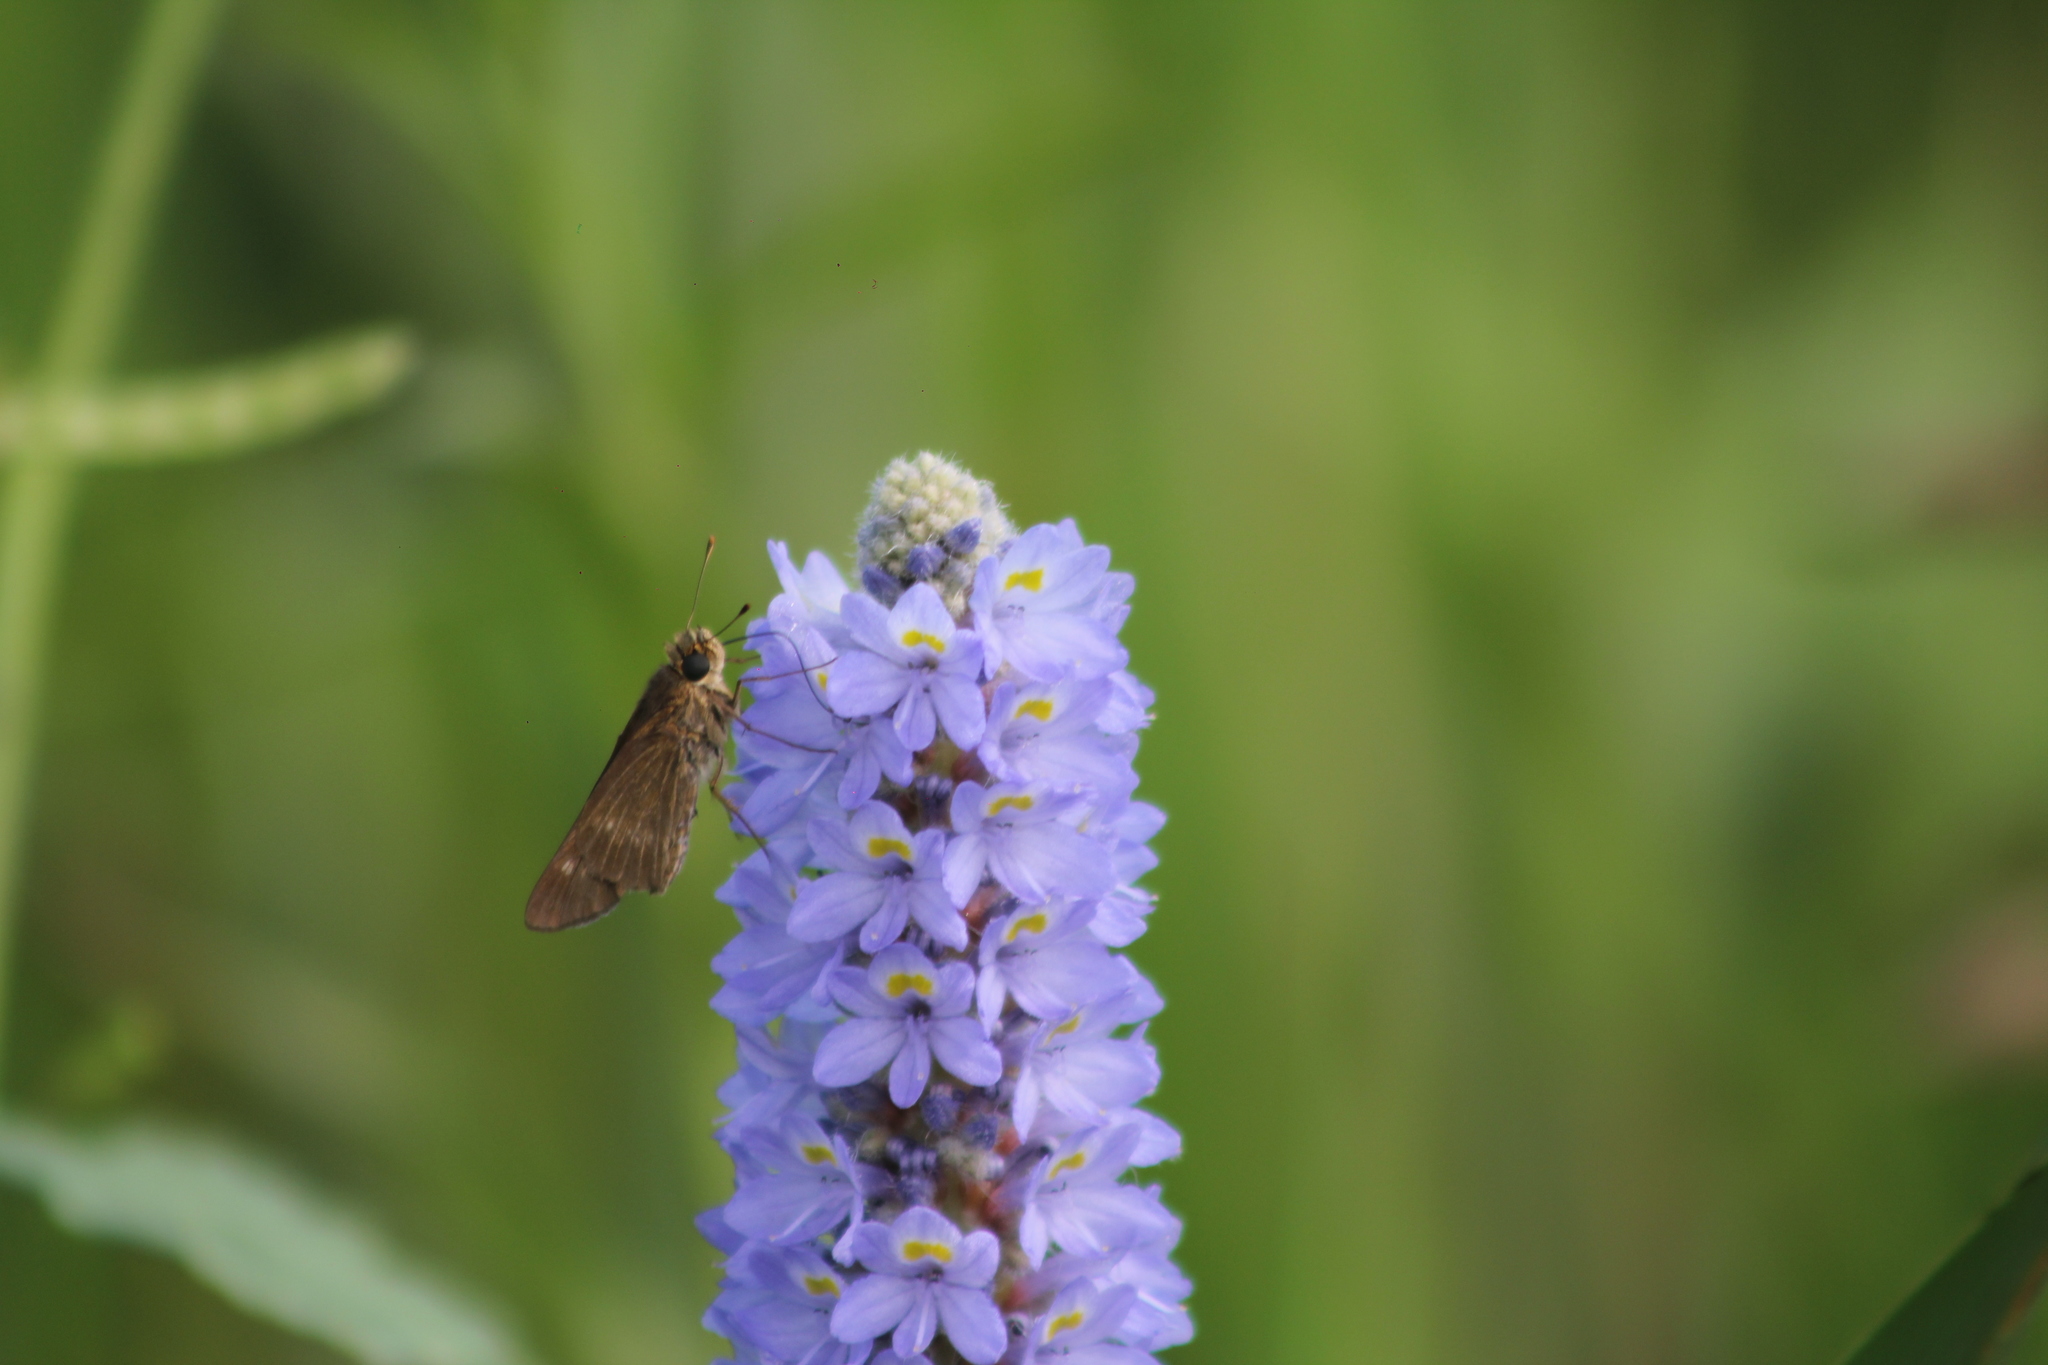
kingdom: Animalia
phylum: Arthropoda
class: Insecta
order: Lepidoptera
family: Hesperiidae
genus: Panoquina
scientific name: Panoquina ocola
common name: Ocola skipper
